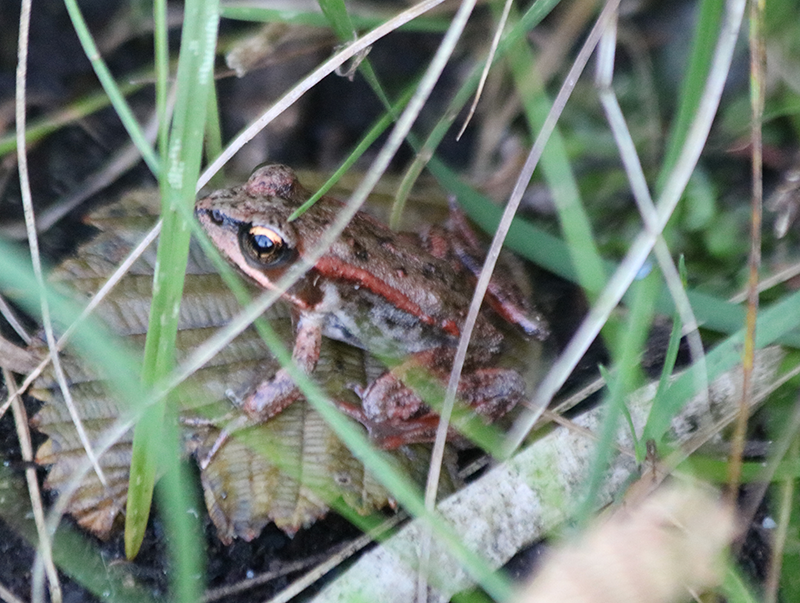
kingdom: Animalia
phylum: Chordata
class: Amphibia
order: Anura
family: Ranidae
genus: Rana
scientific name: Rana aurora
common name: Red-legged frog
